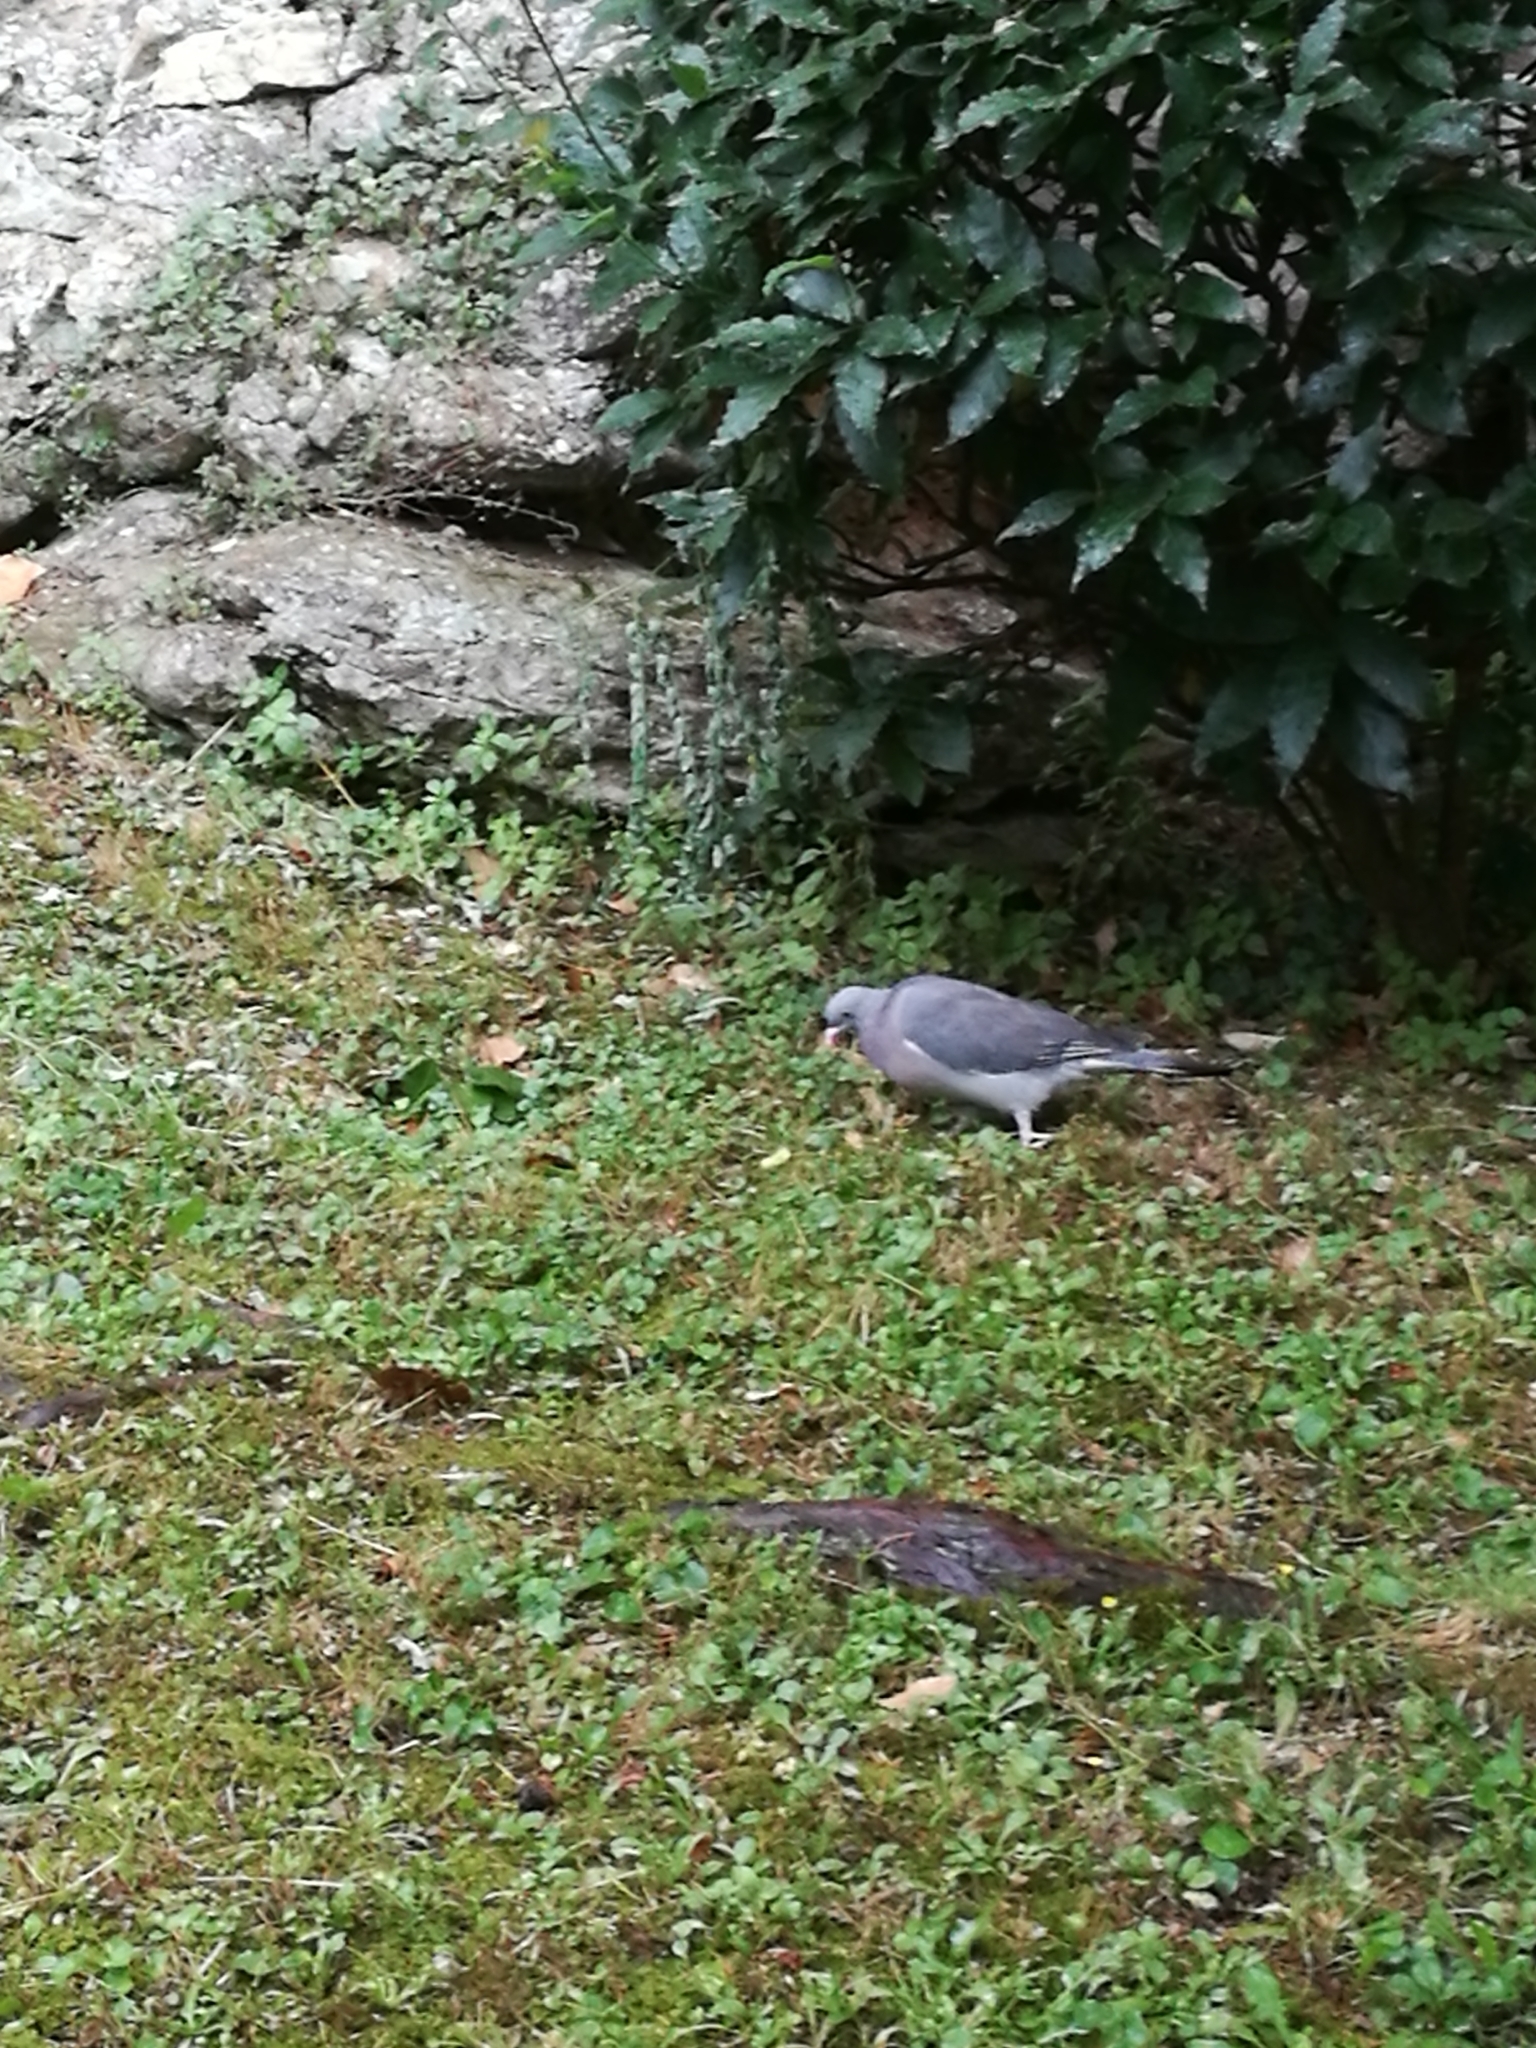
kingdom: Animalia
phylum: Chordata
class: Aves
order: Columbiformes
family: Columbidae
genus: Columba
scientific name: Columba palumbus
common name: Common wood pigeon
